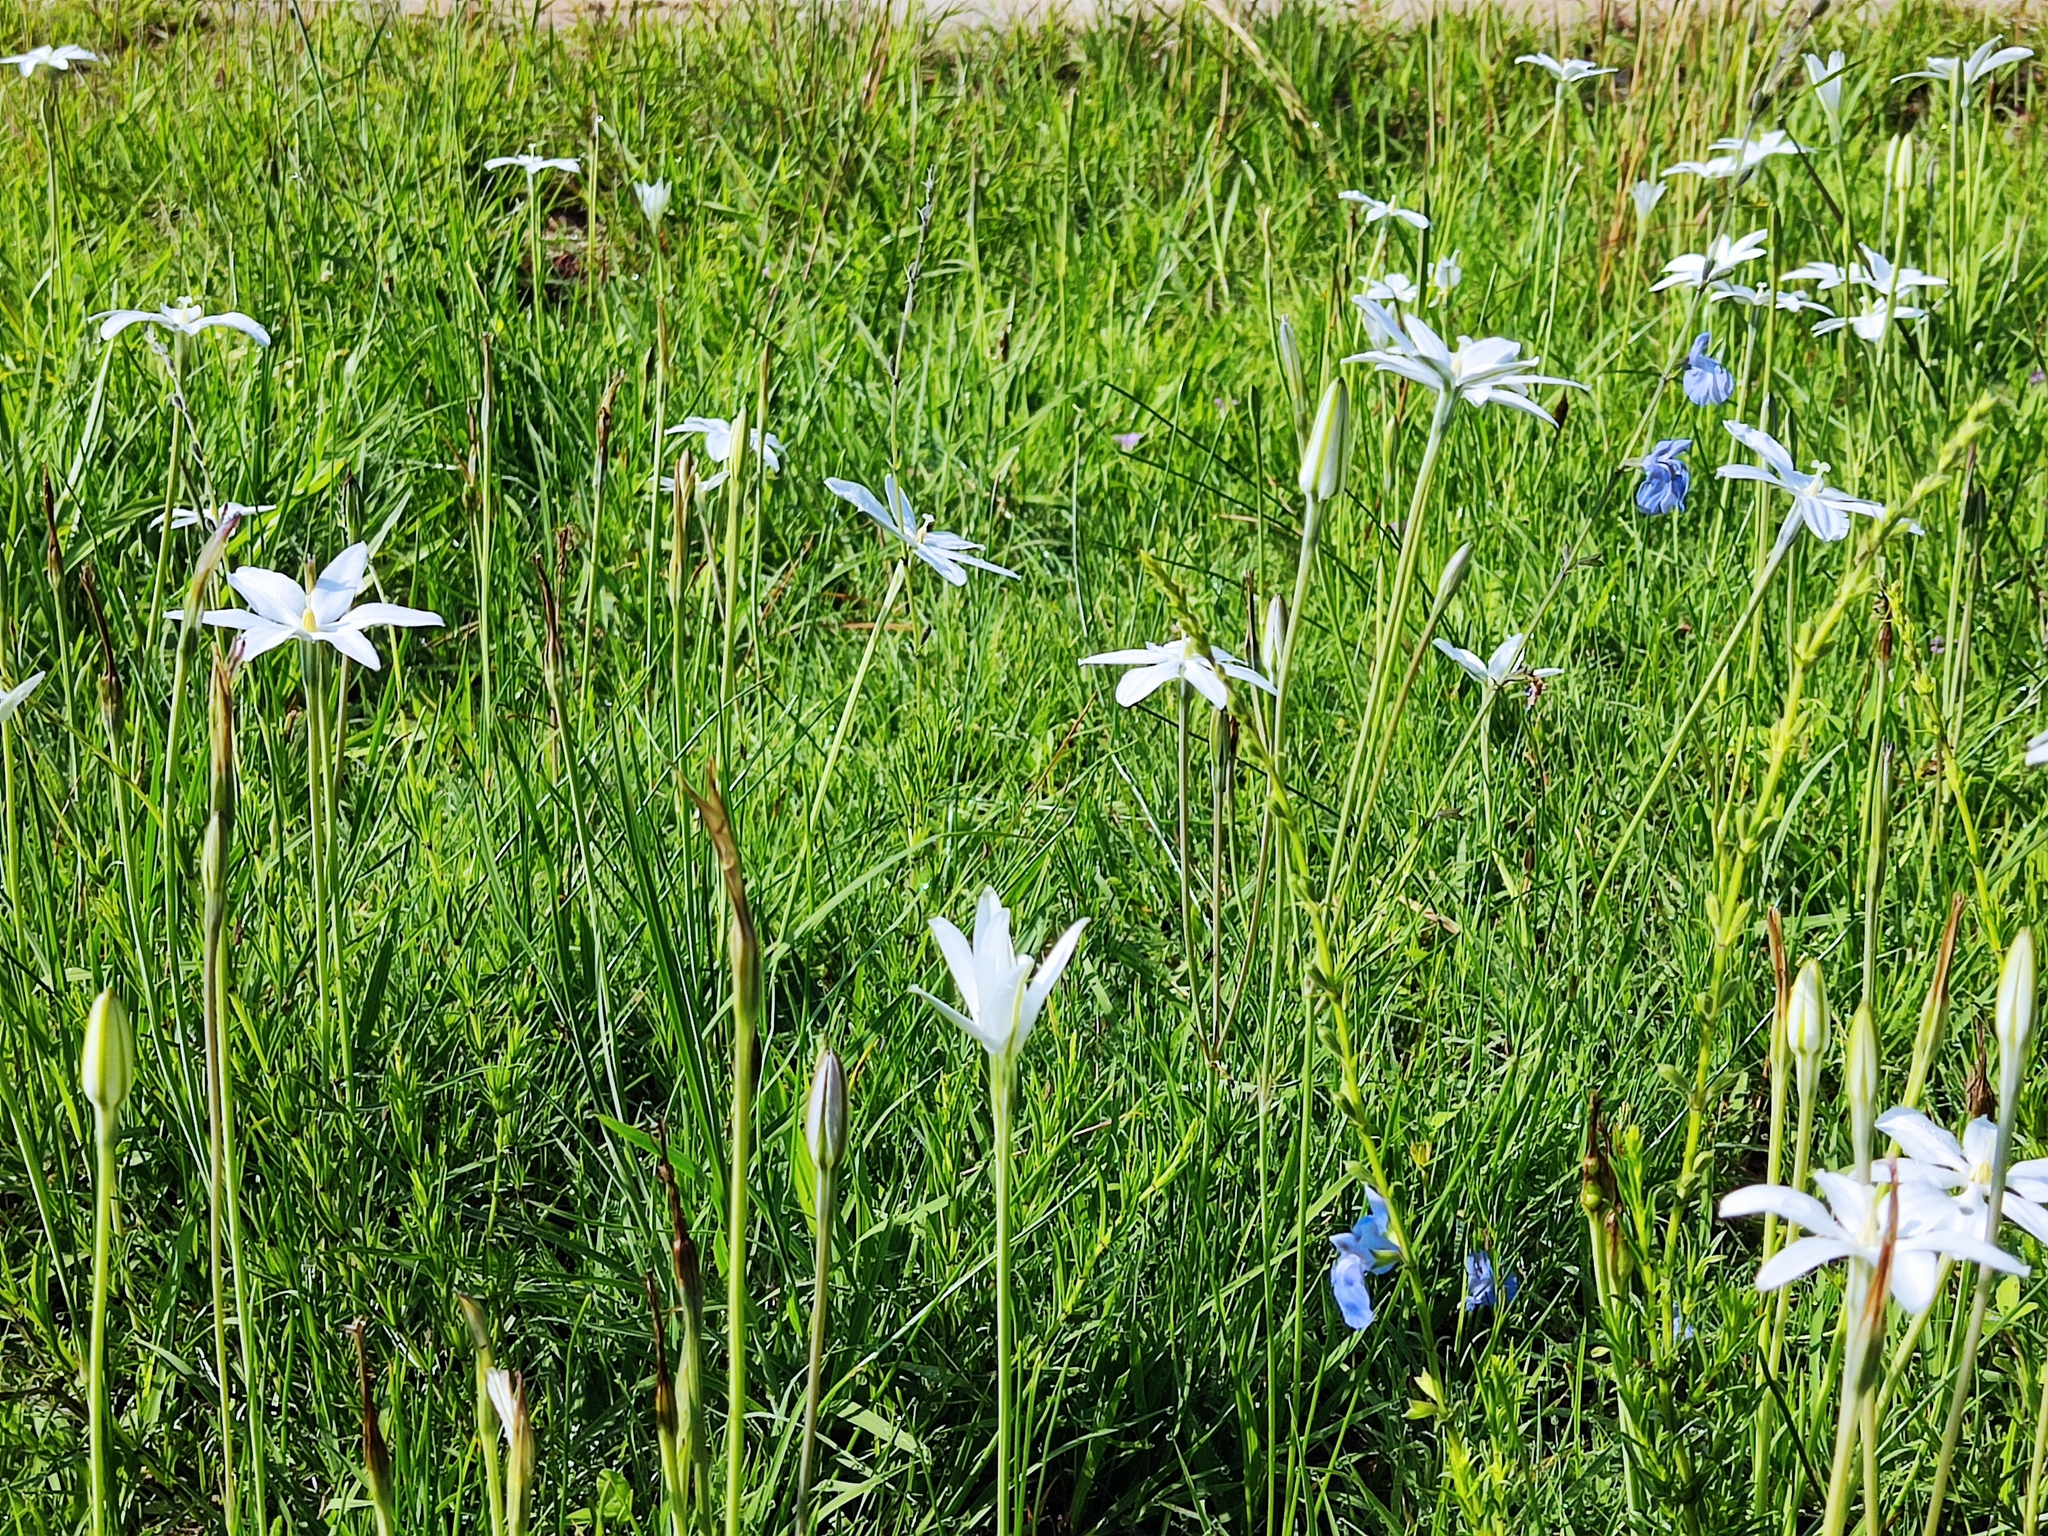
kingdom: Plantae
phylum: Tracheophyta
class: Liliopsida
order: Asparagales
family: Asparagaceae
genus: Milla
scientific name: Milla biflora
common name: Mexican-star
